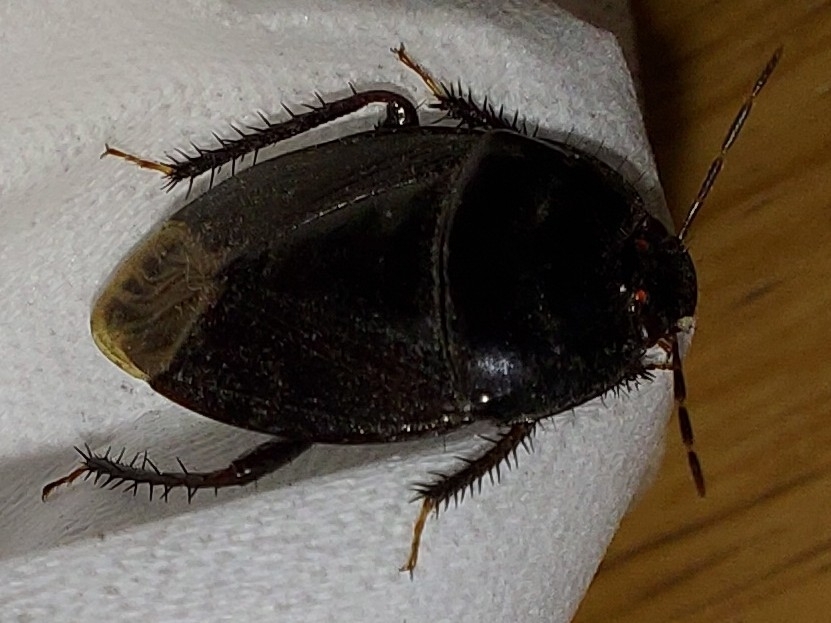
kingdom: Animalia
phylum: Arthropoda
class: Insecta
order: Hemiptera
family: Cydnidae
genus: Macroscytus
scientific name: Macroscytus reflexus
